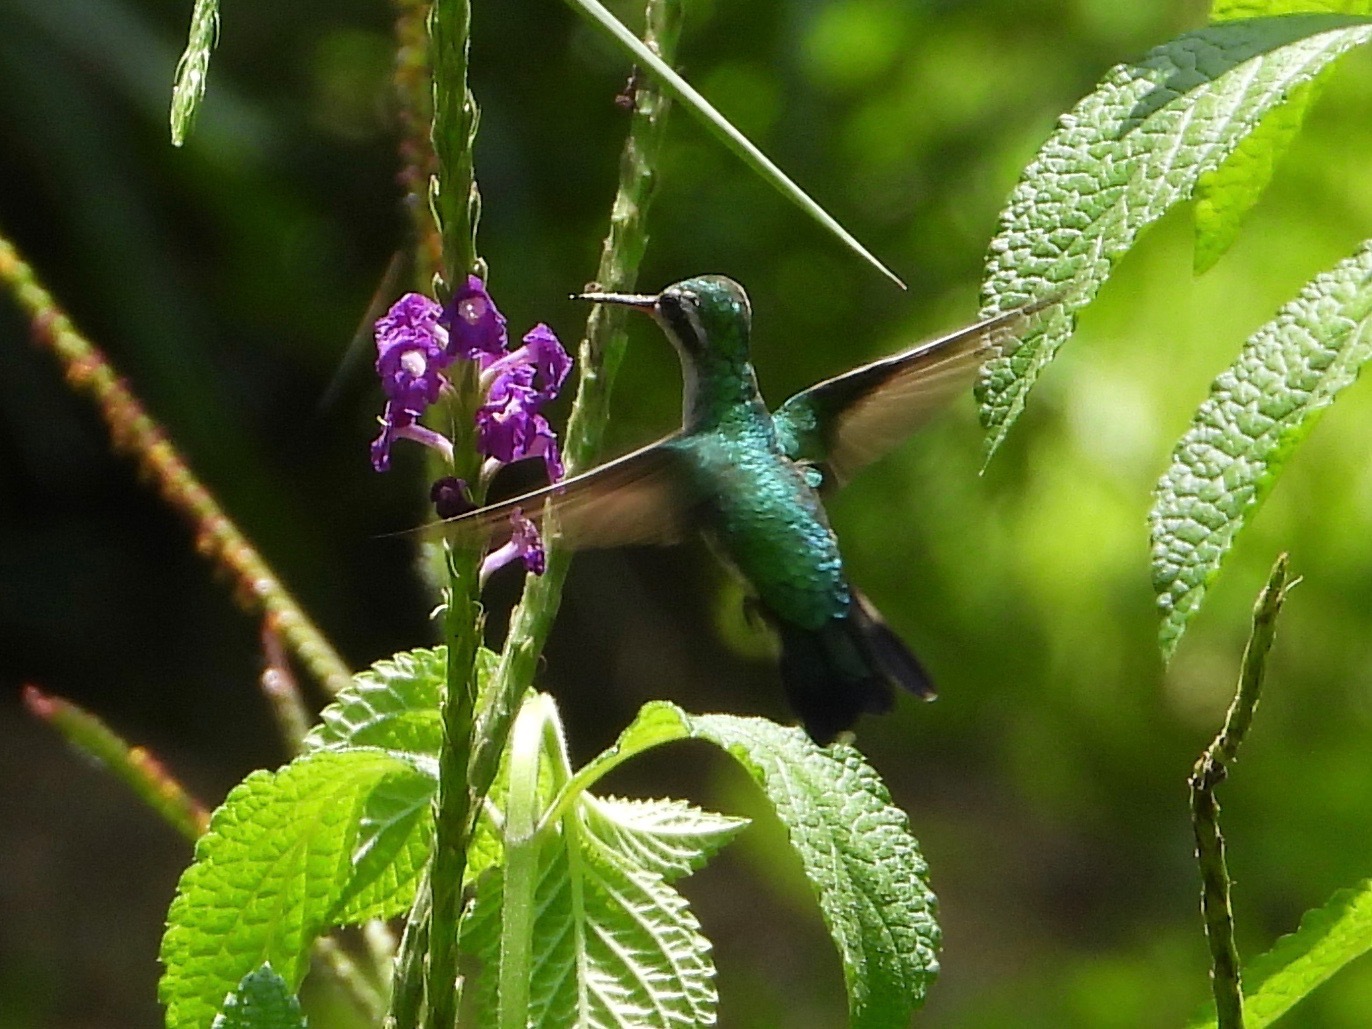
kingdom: Animalia
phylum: Chordata
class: Aves
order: Apodiformes
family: Trochilidae
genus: Cynanthus
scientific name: Cynanthus canivetii
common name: Canivet's emerald
